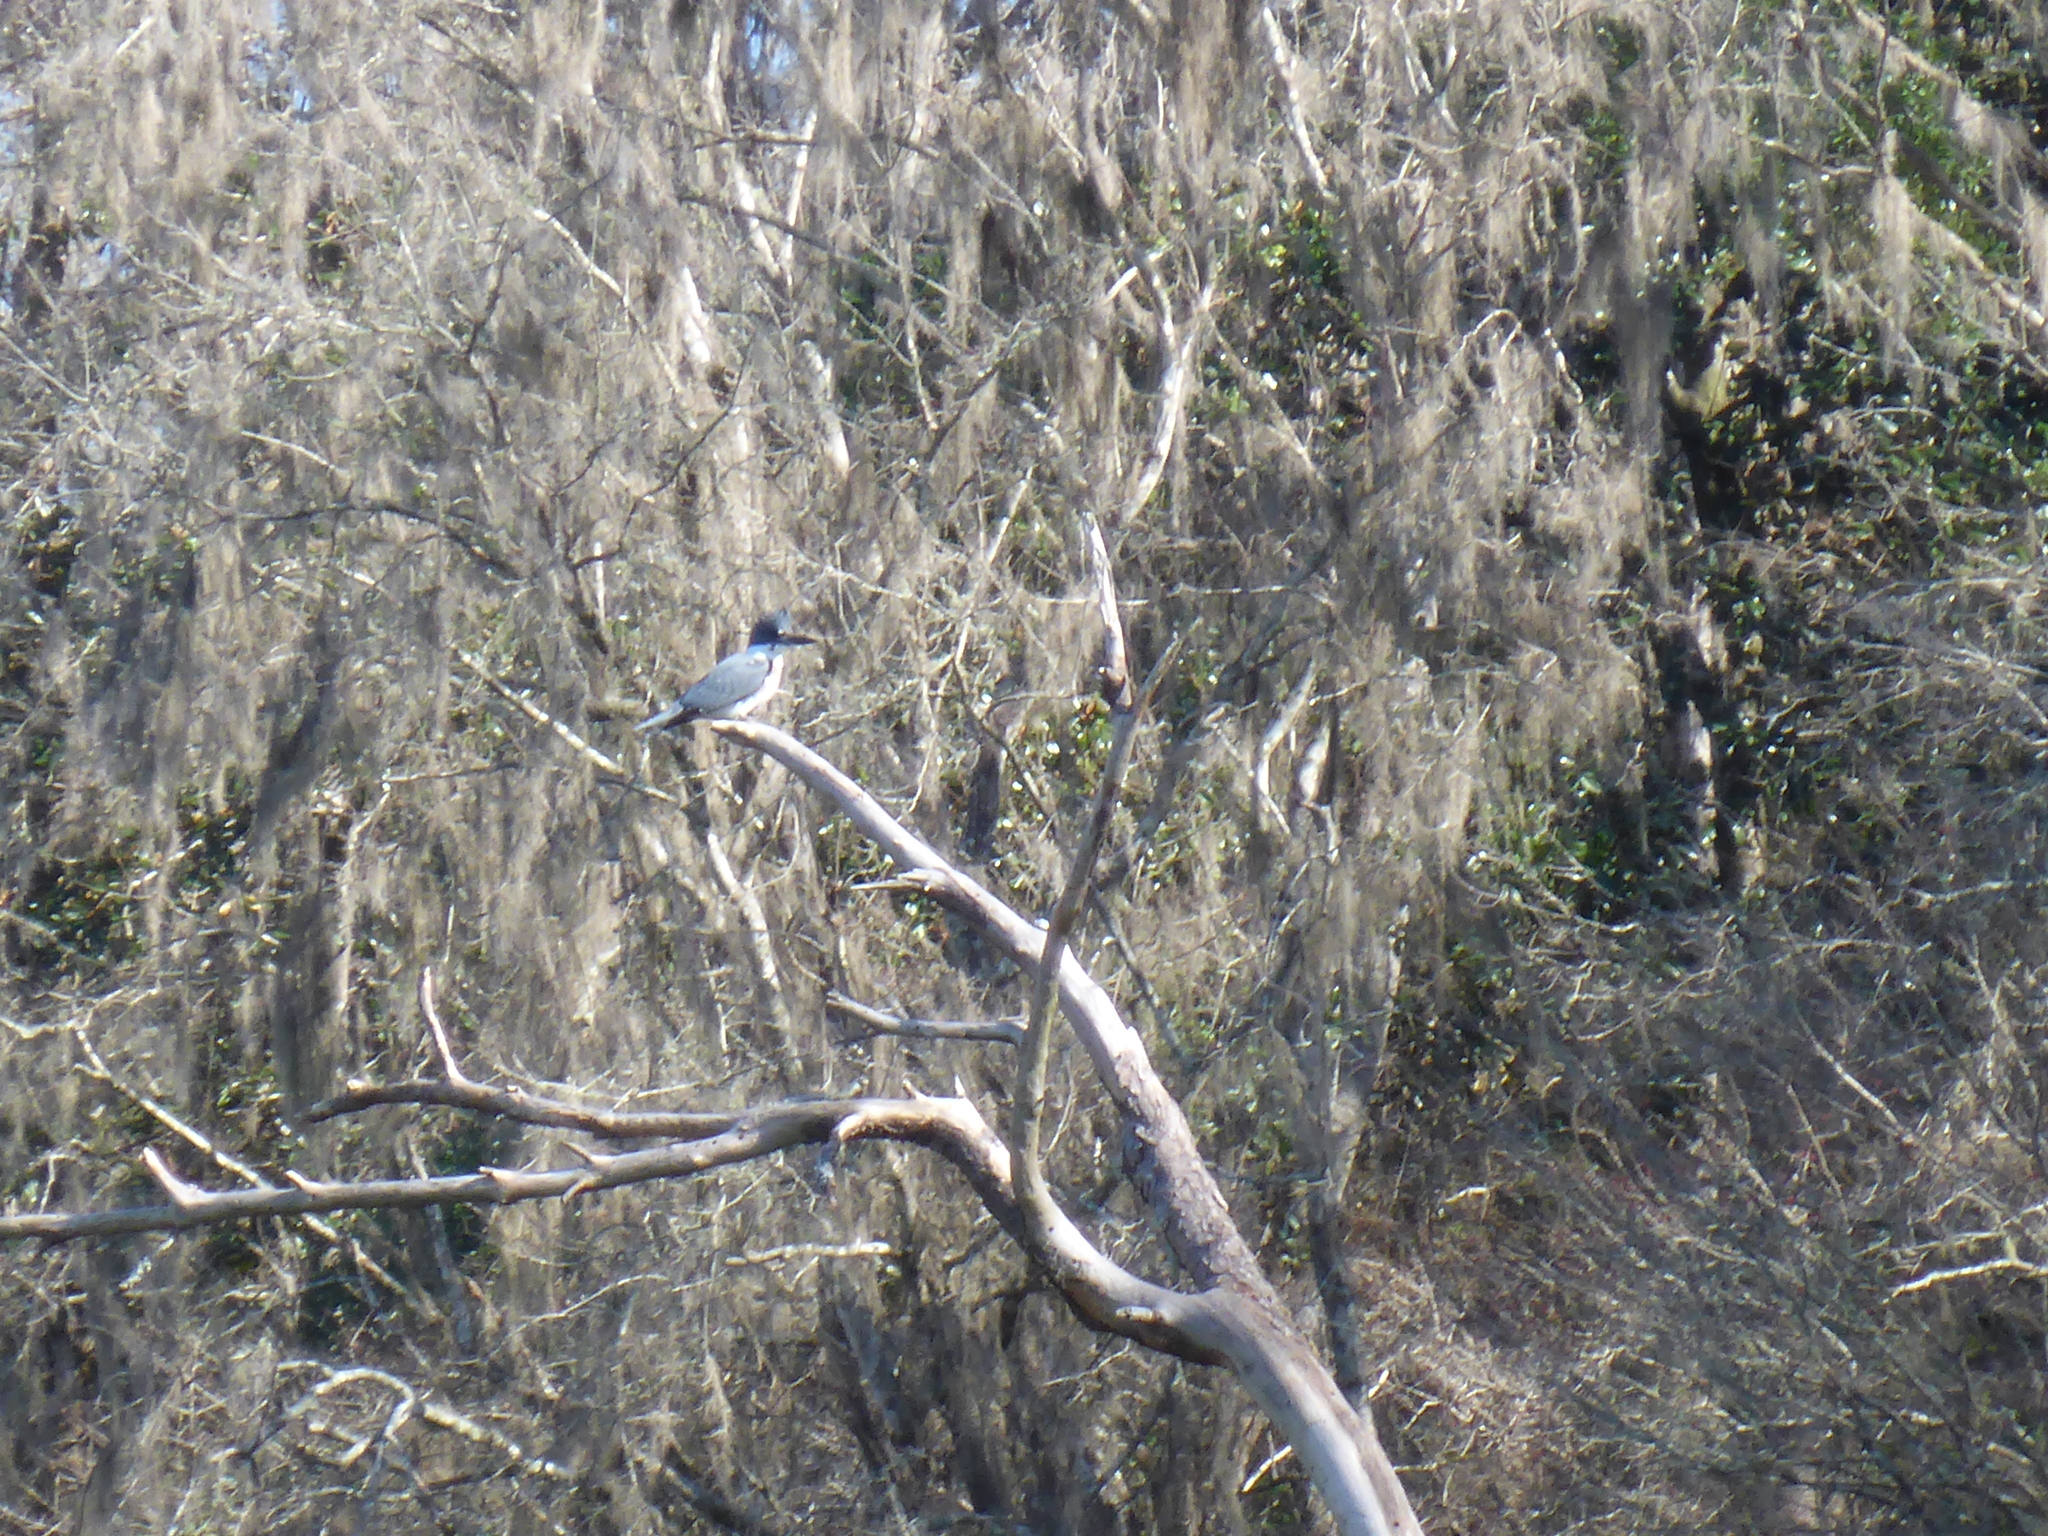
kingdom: Animalia
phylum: Chordata
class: Aves
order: Coraciiformes
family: Alcedinidae
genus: Megaceryle
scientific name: Megaceryle alcyon
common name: Belted kingfisher
